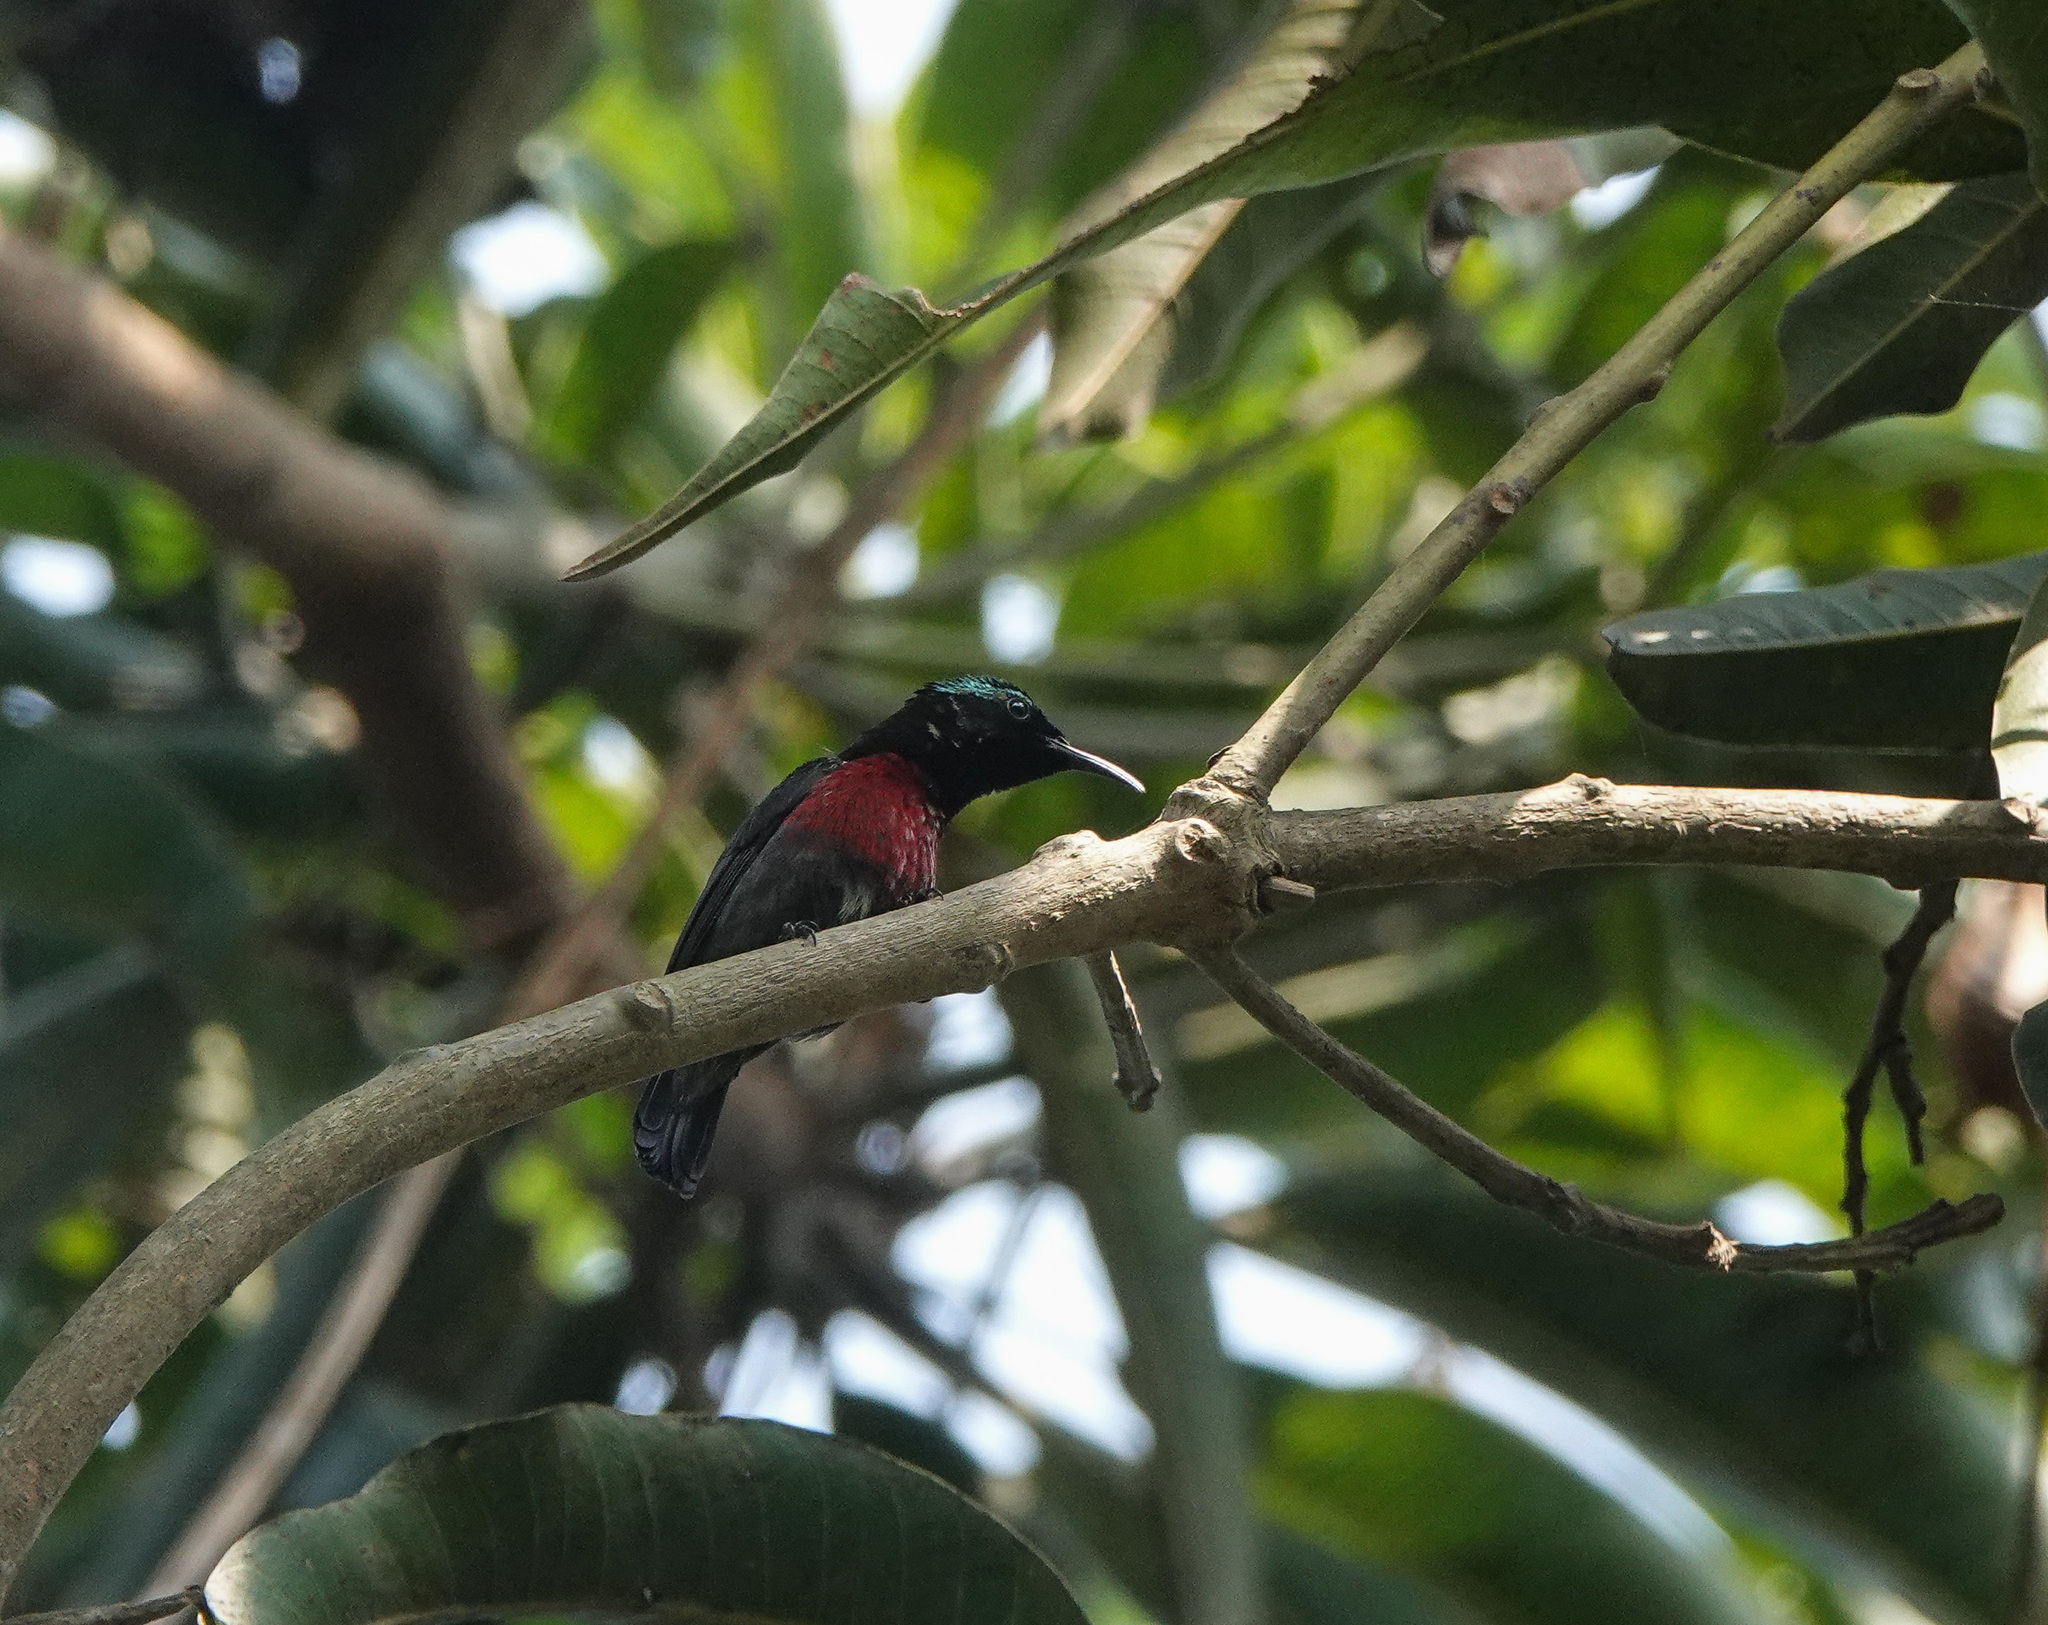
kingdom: Animalia
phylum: Chordata
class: Aves
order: Passeriformes
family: Nectariniidae
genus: Leptocoma
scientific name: Leptocoma brasiliana
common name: Van hasselt's sunbird
